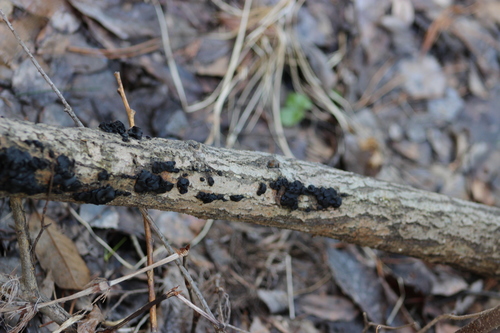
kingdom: Fungi
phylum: Basidiomycota
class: Agaricomycetes
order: Auriculariales
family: Auriculariaceae
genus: Exidia
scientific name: Exidia glandulosa
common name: Witches' butter
